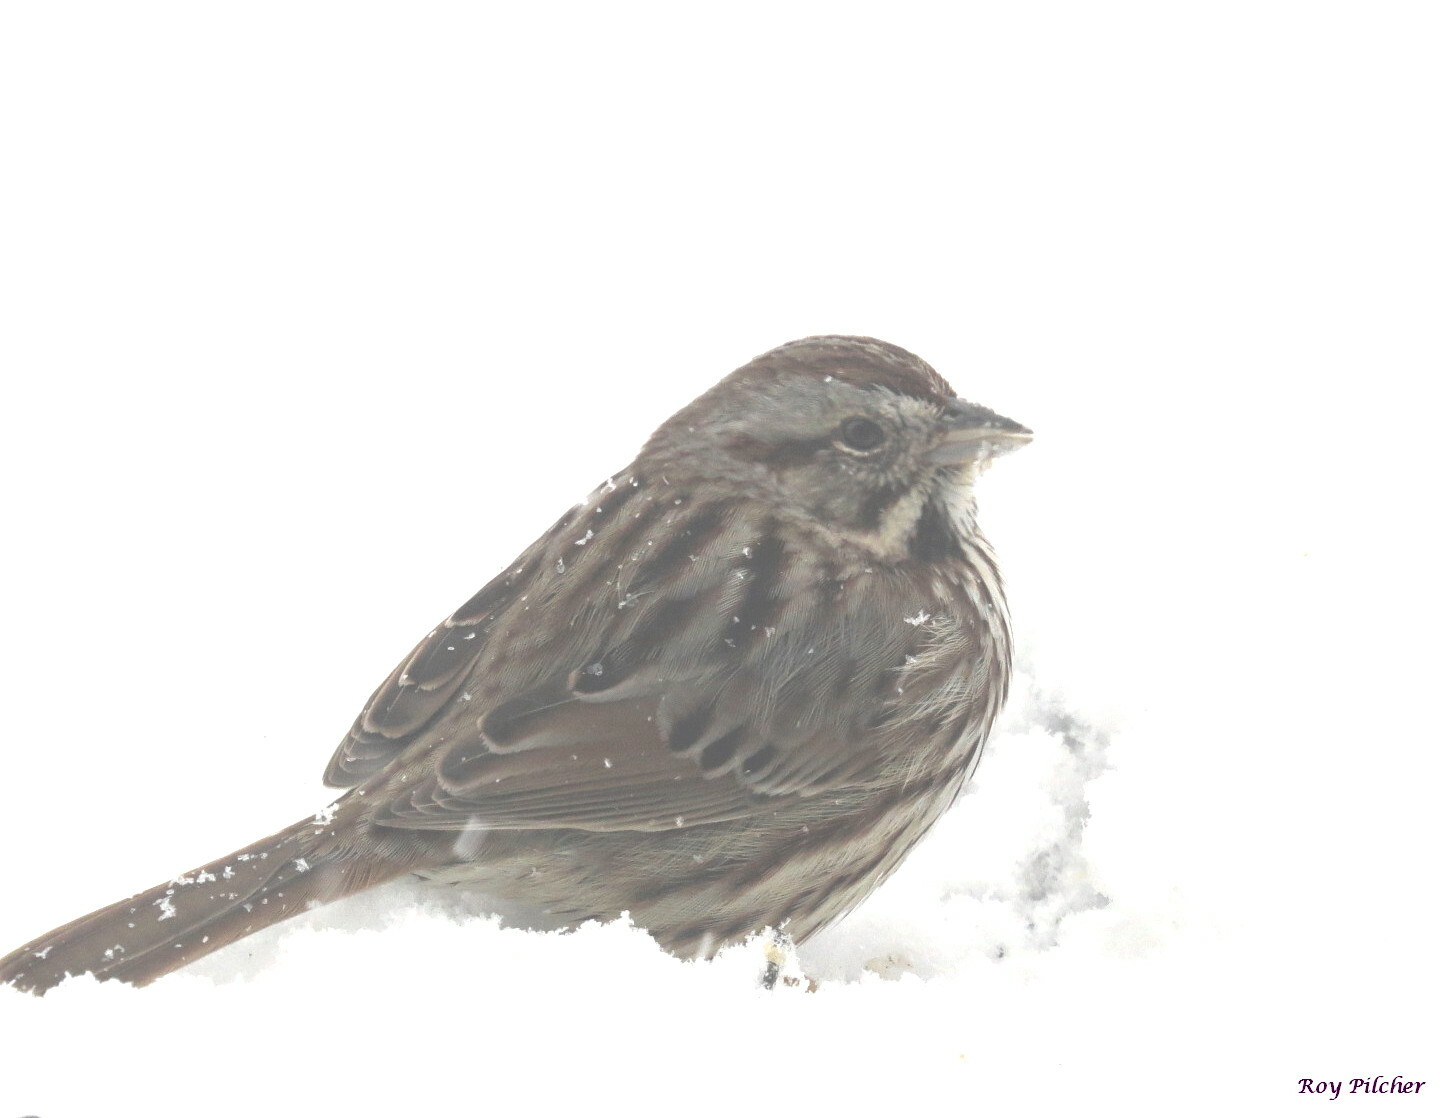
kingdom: Animalia
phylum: Chordata
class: Aves
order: Passeriformes
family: Passerellidae
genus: Melospiza
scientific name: Melospiza melodia
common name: Song sparrow
